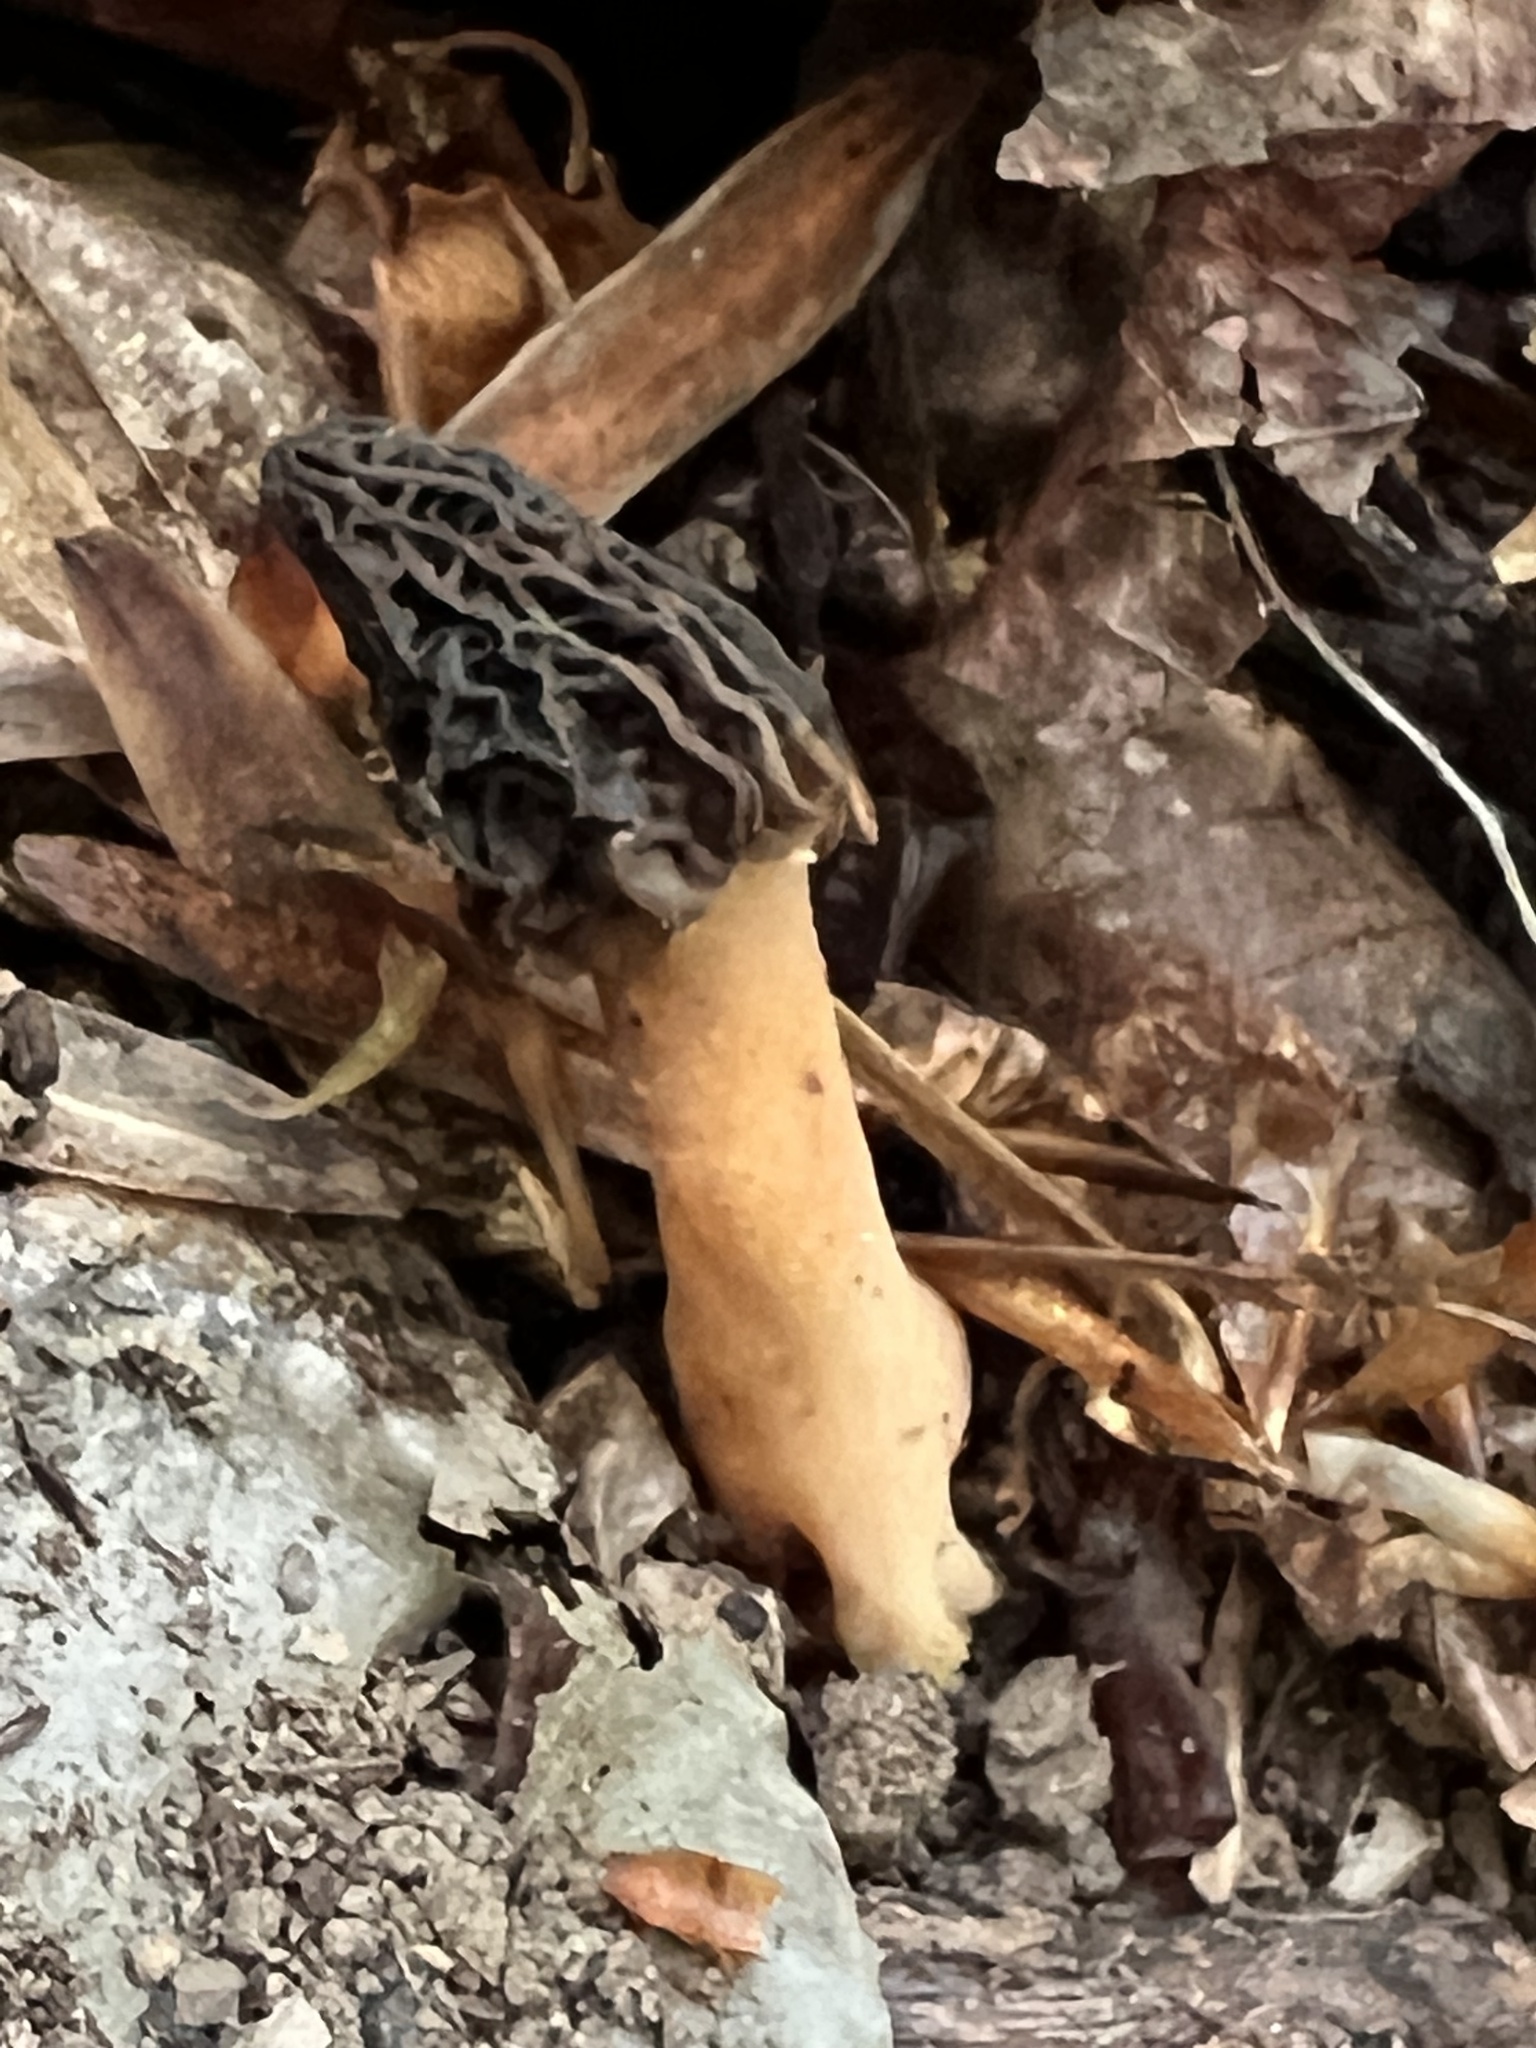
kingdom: Fungi
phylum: Ascomycota
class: Pezizomycetes
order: Pezizales
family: Morchellaceae
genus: Morchella
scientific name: Morchella diminutiva
